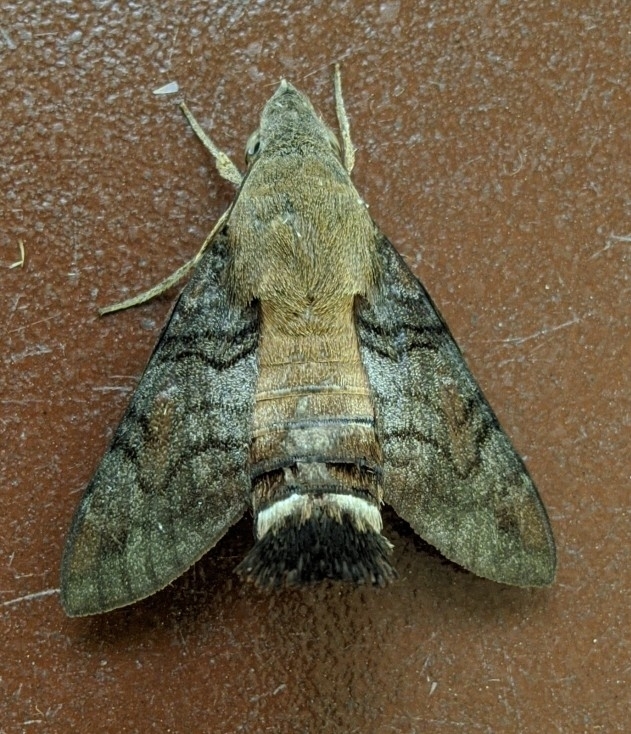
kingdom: Animalia
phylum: Arthropoda
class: Insecta
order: Lepidoptera
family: Sphingidae
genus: Macroglossum
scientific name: Macroglossum gyrans
